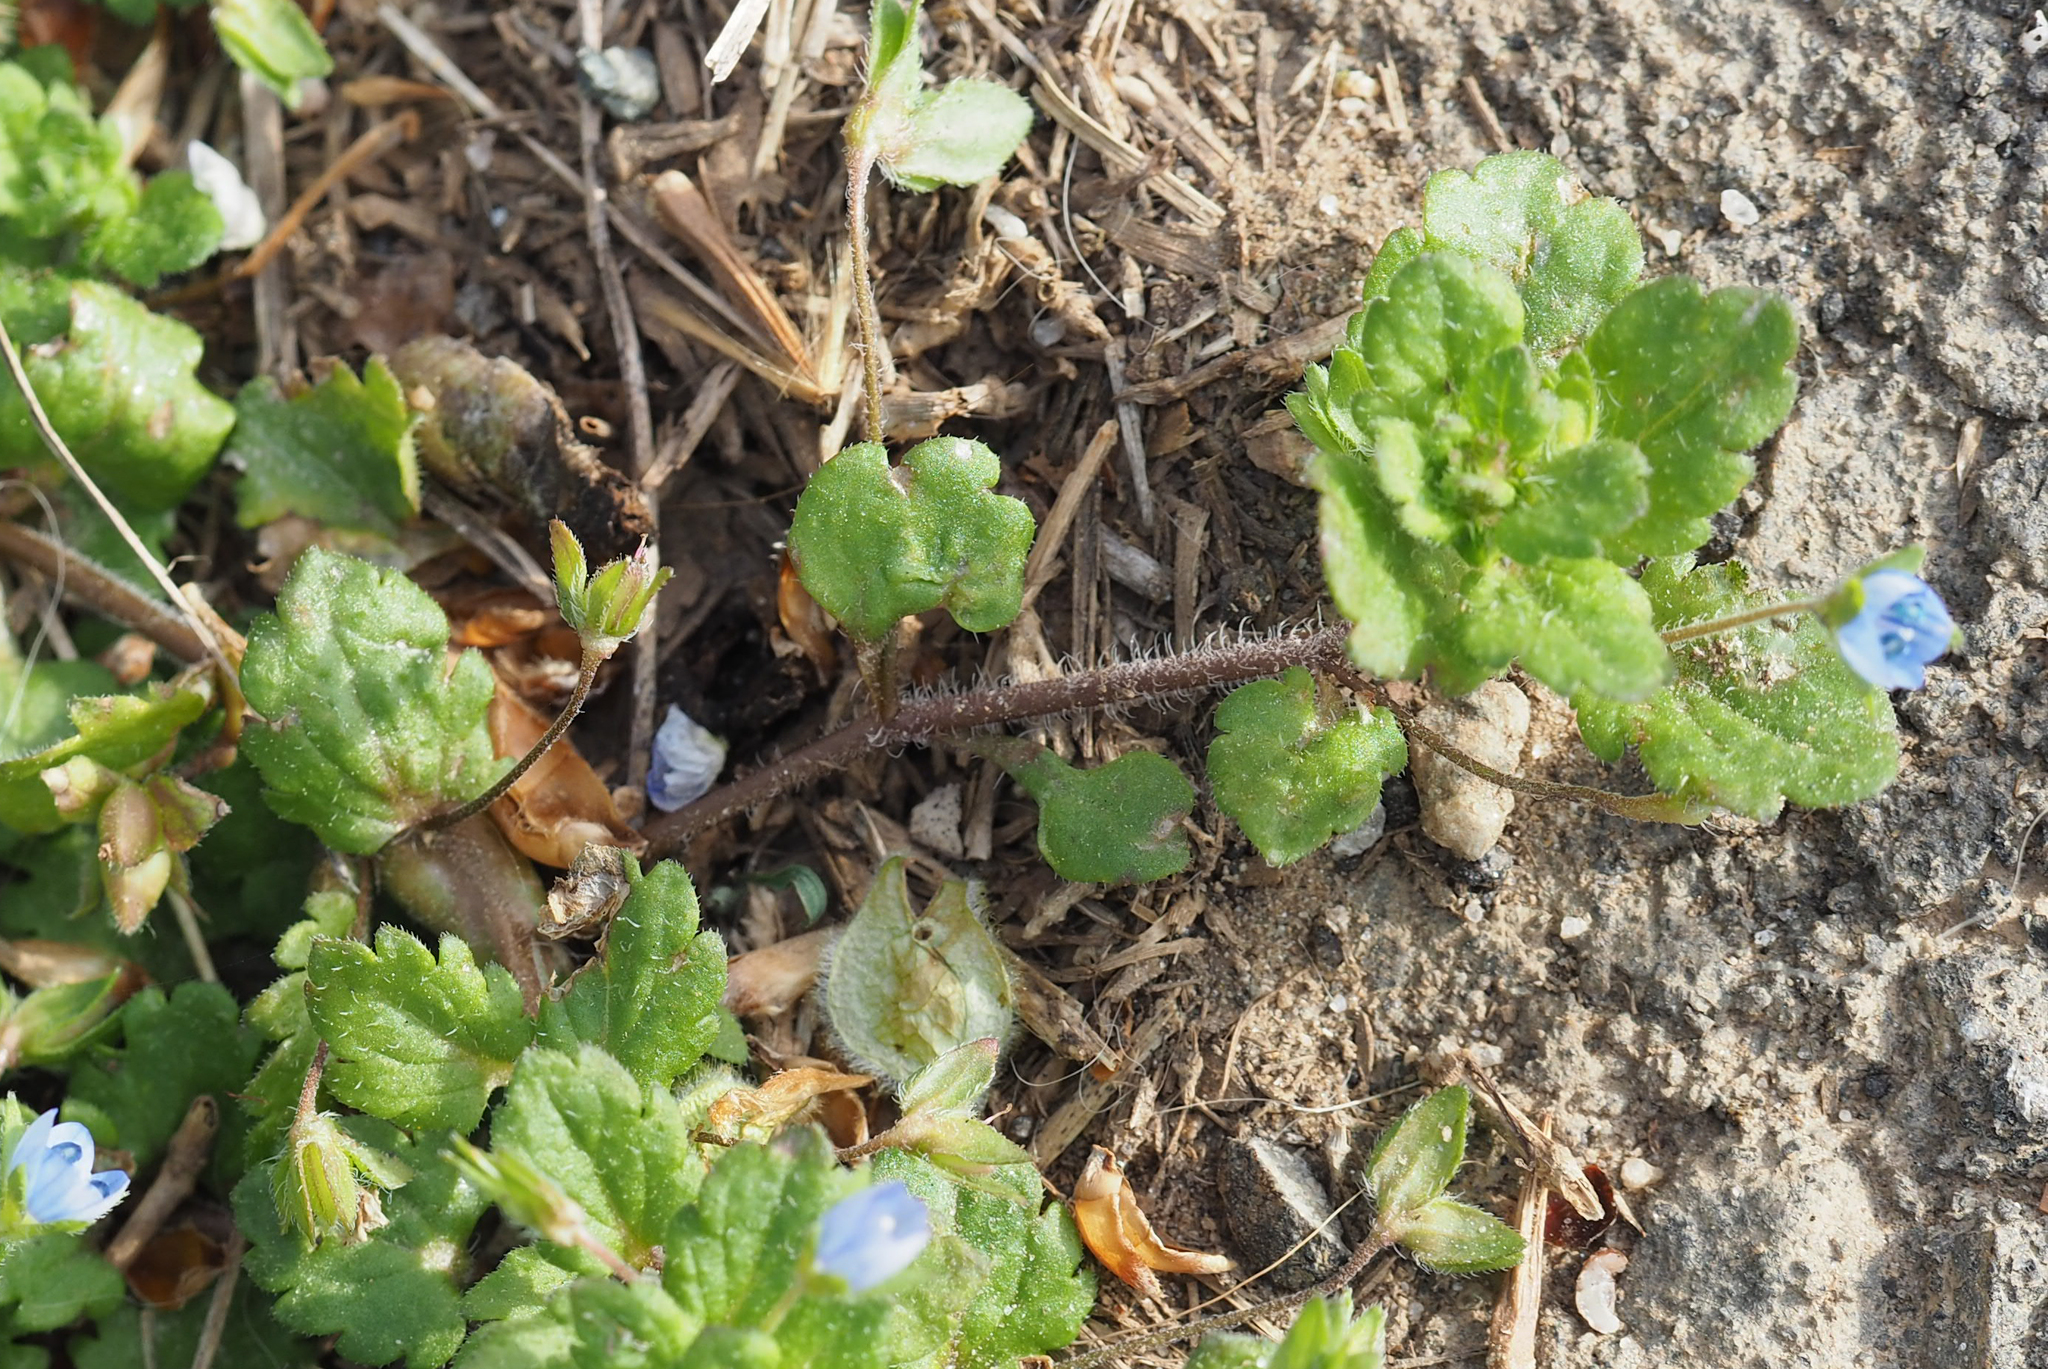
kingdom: Plantae
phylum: Tracheophyta
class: Magnoliopsida
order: Lamiales
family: Plantaginaceae
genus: Veronica
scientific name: Veronica persica
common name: Common field-speedwell
